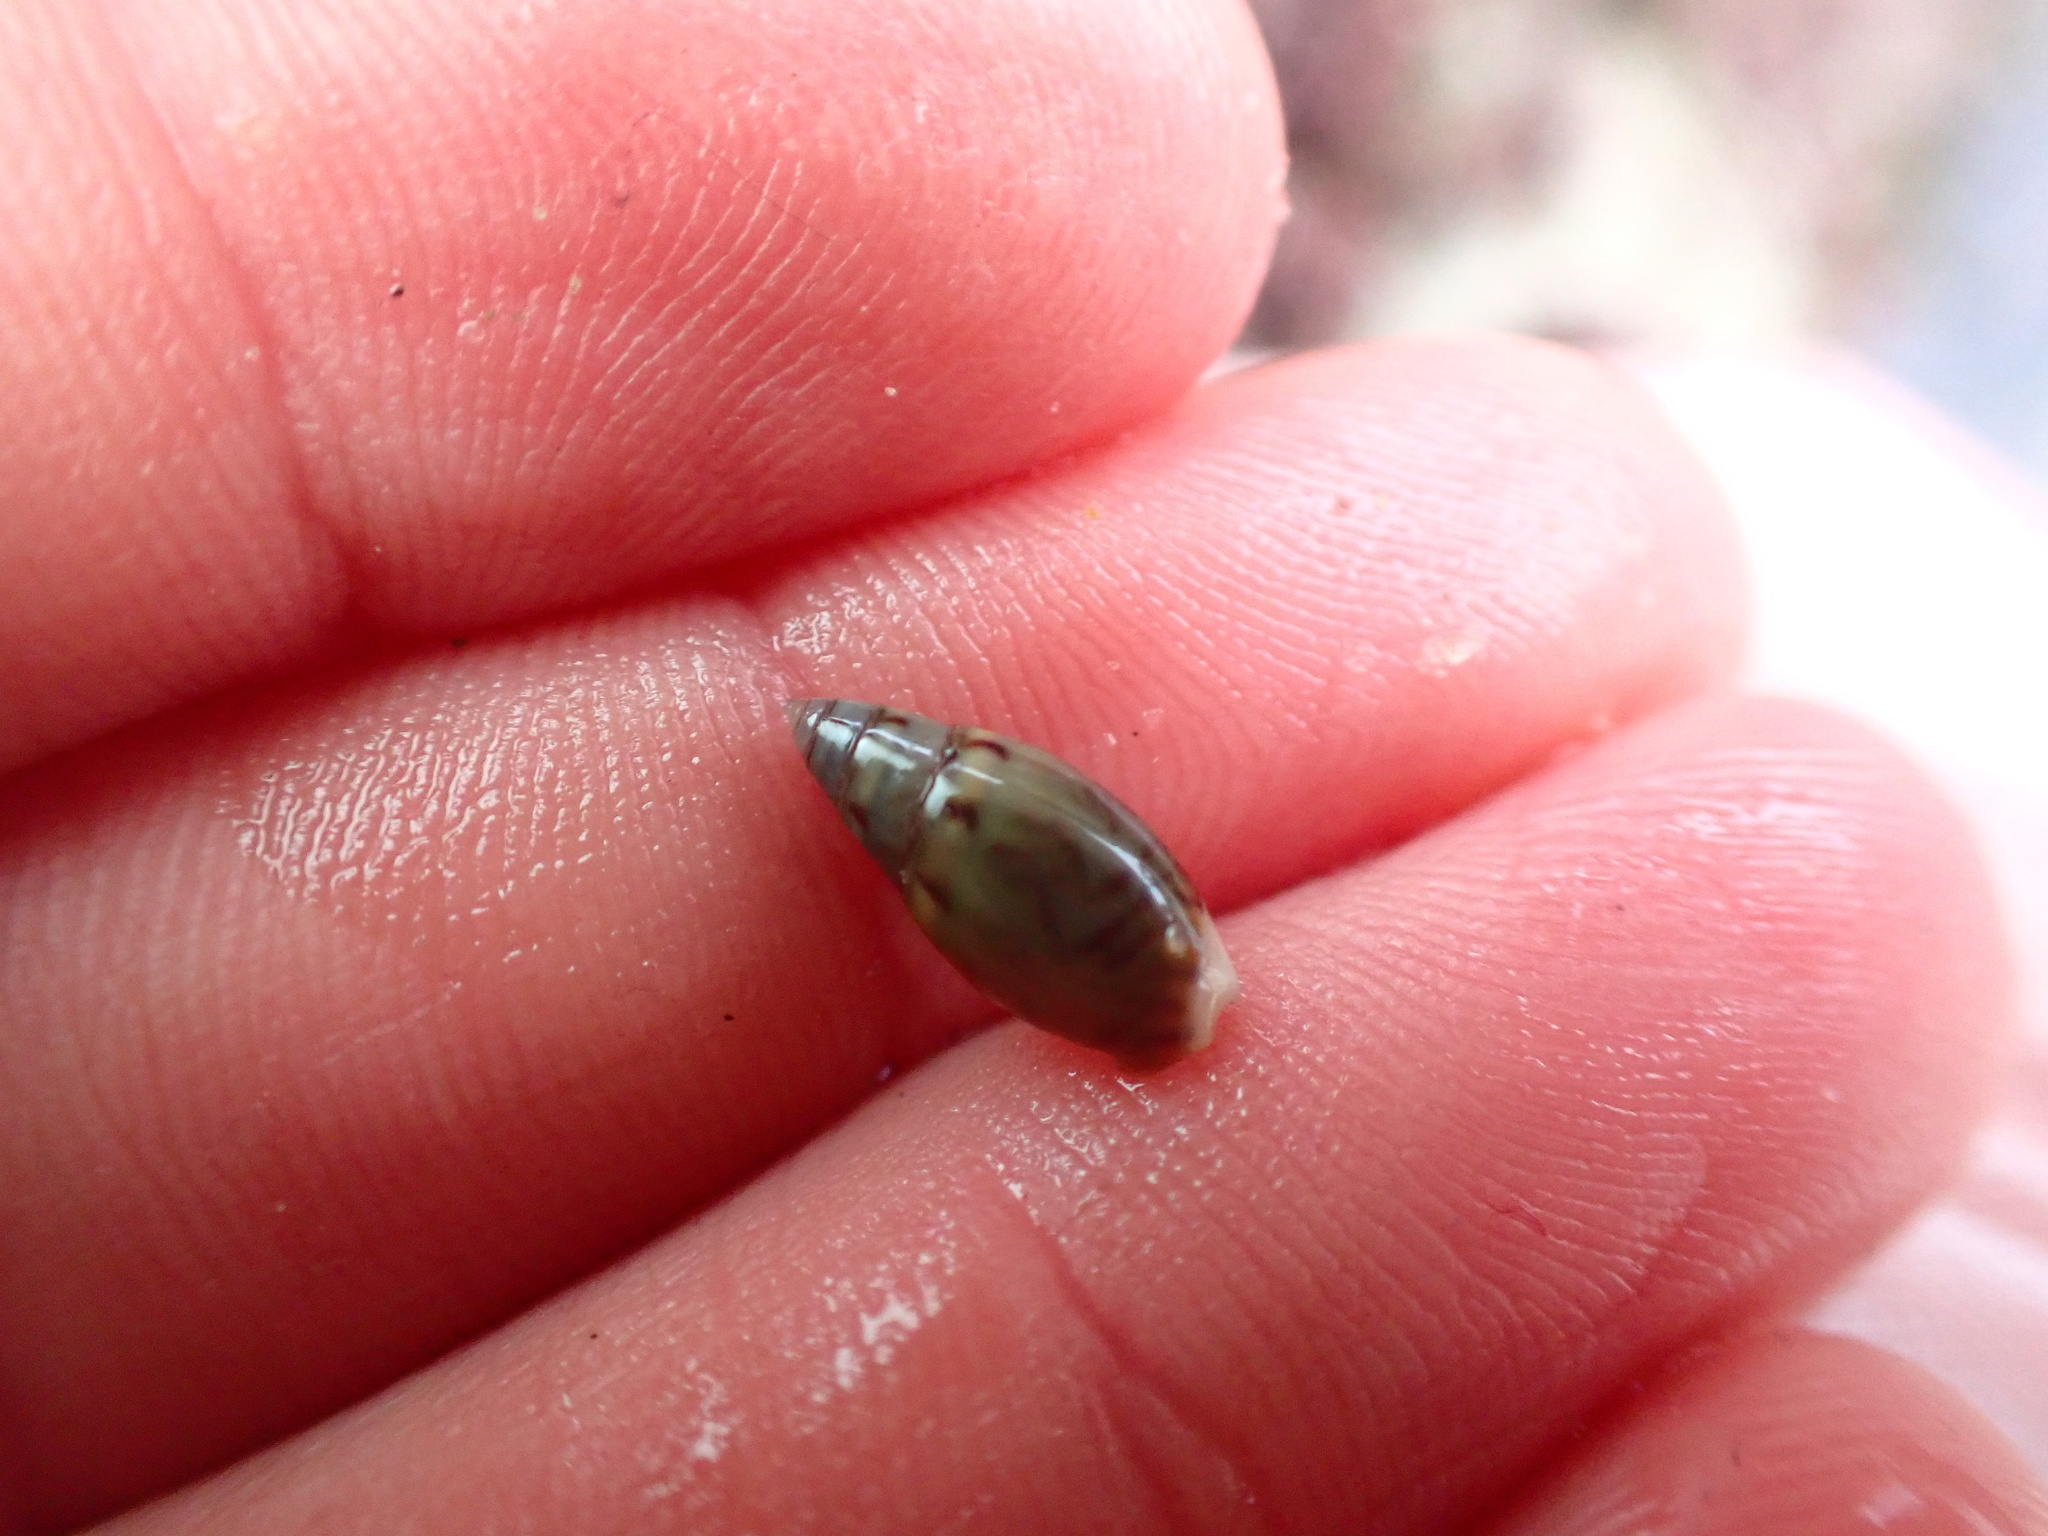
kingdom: Animalia
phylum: Mollusca
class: Gastropoda
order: Neogastropoda
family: Olividae
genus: Callianax
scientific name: Callianax alectona
